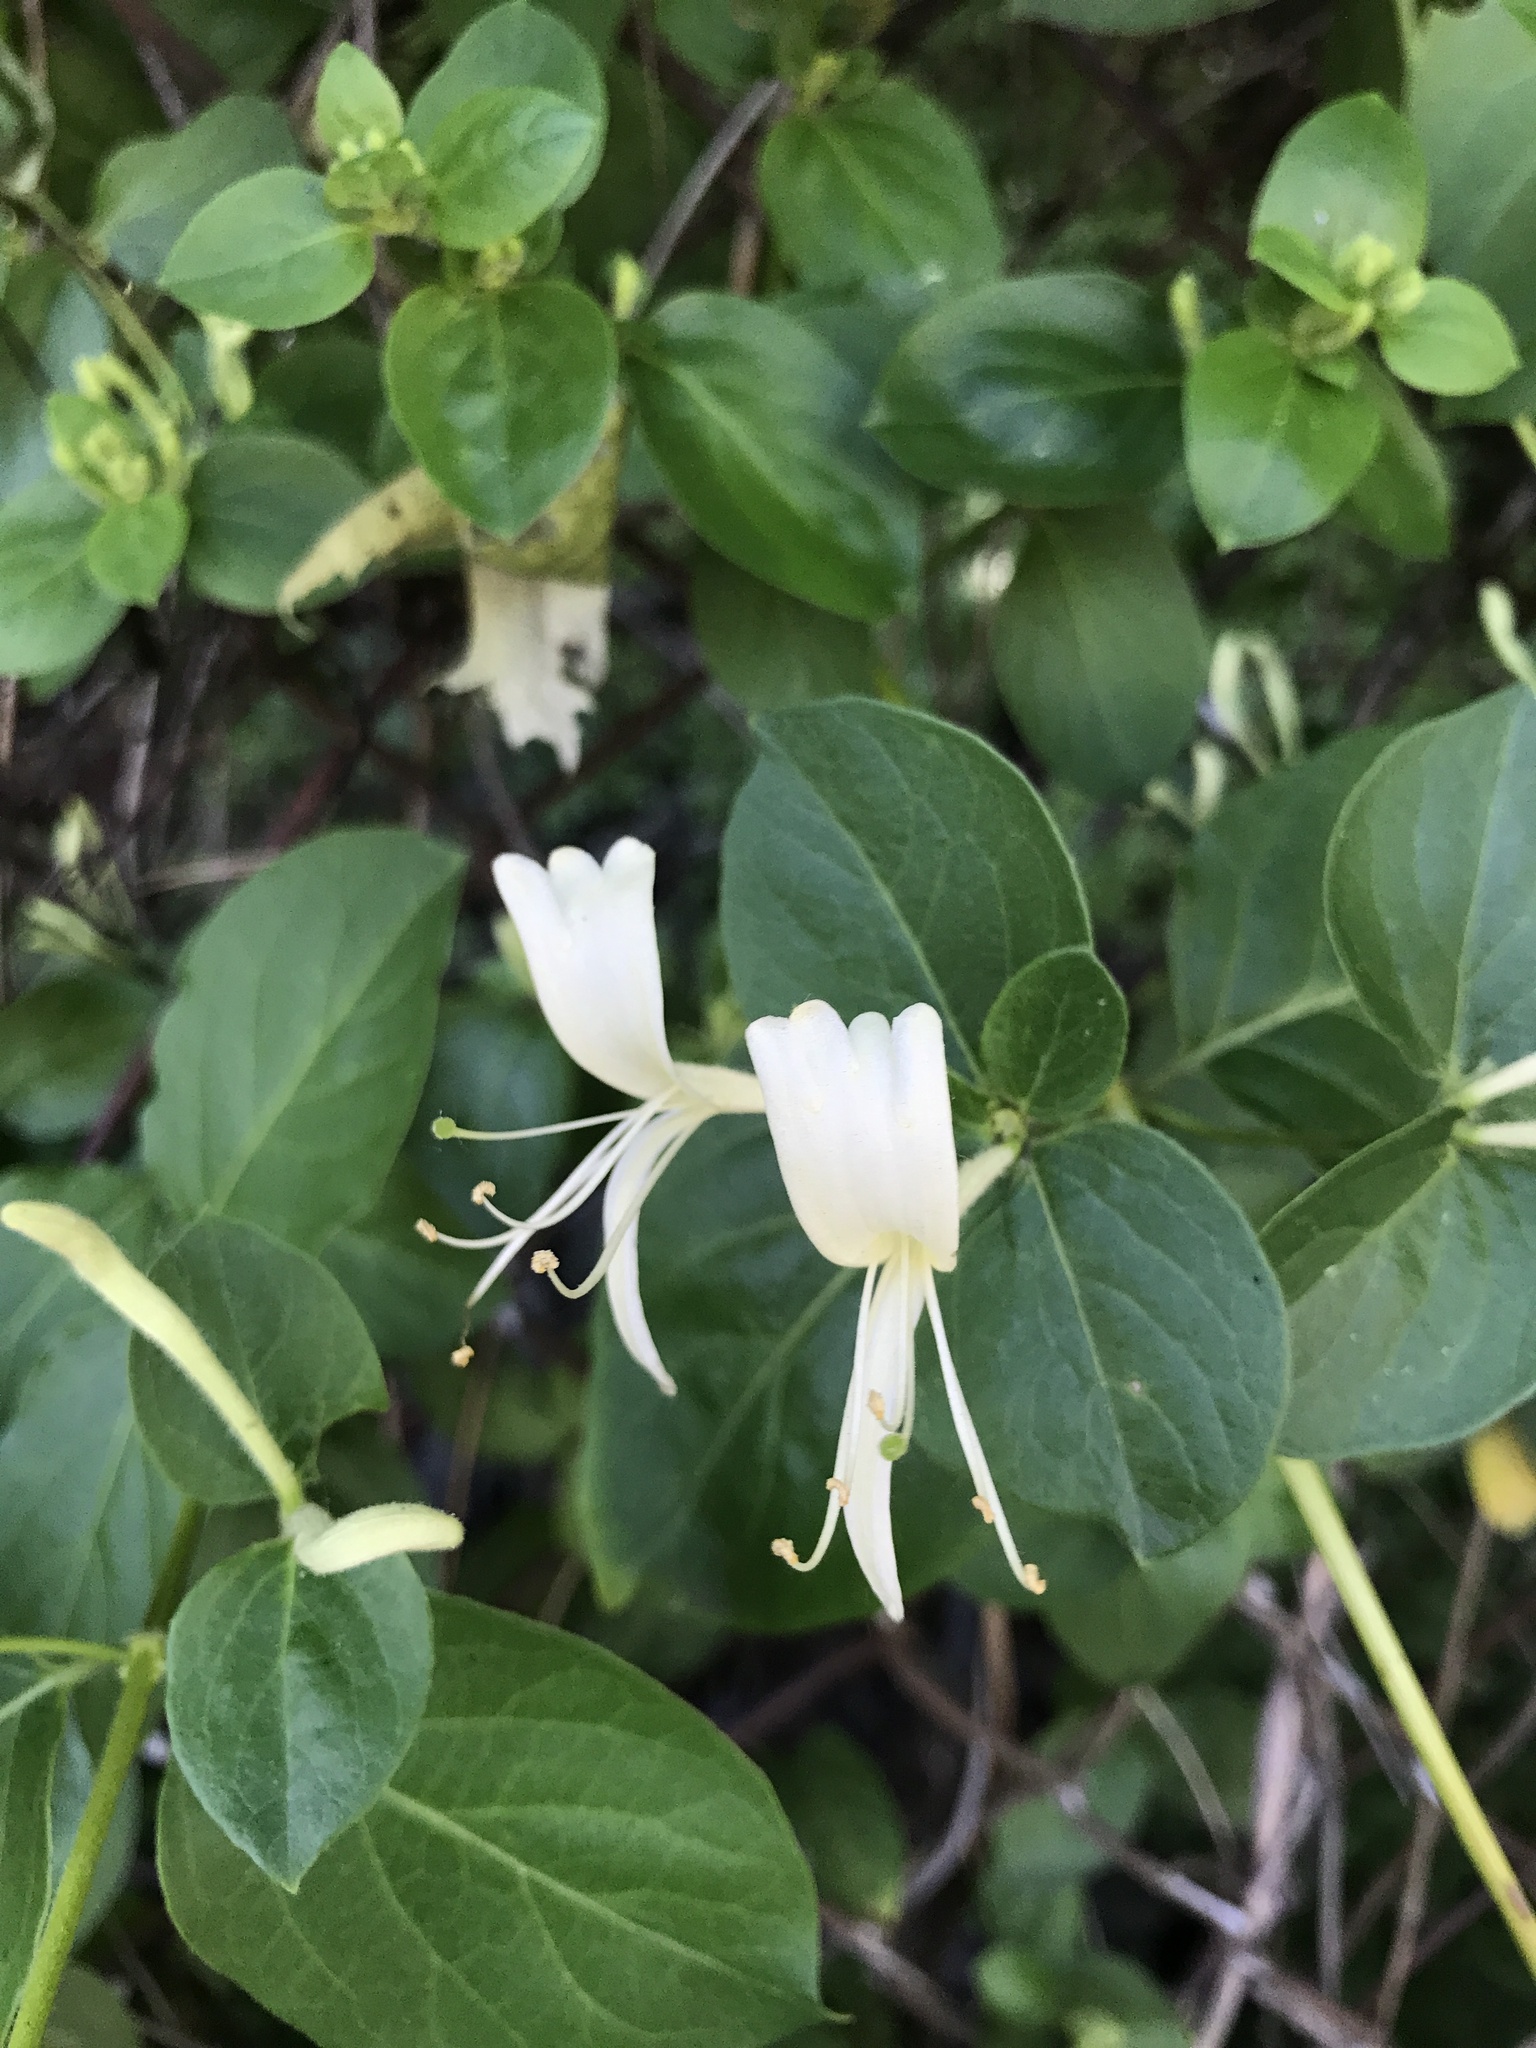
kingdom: Plantae
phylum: Tracheophyta
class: Magnoliopsida
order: Dipsacales
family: Caprifoliaceae
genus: Lonicera
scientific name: Lonicera japonica
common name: Japanese honeysuckle
